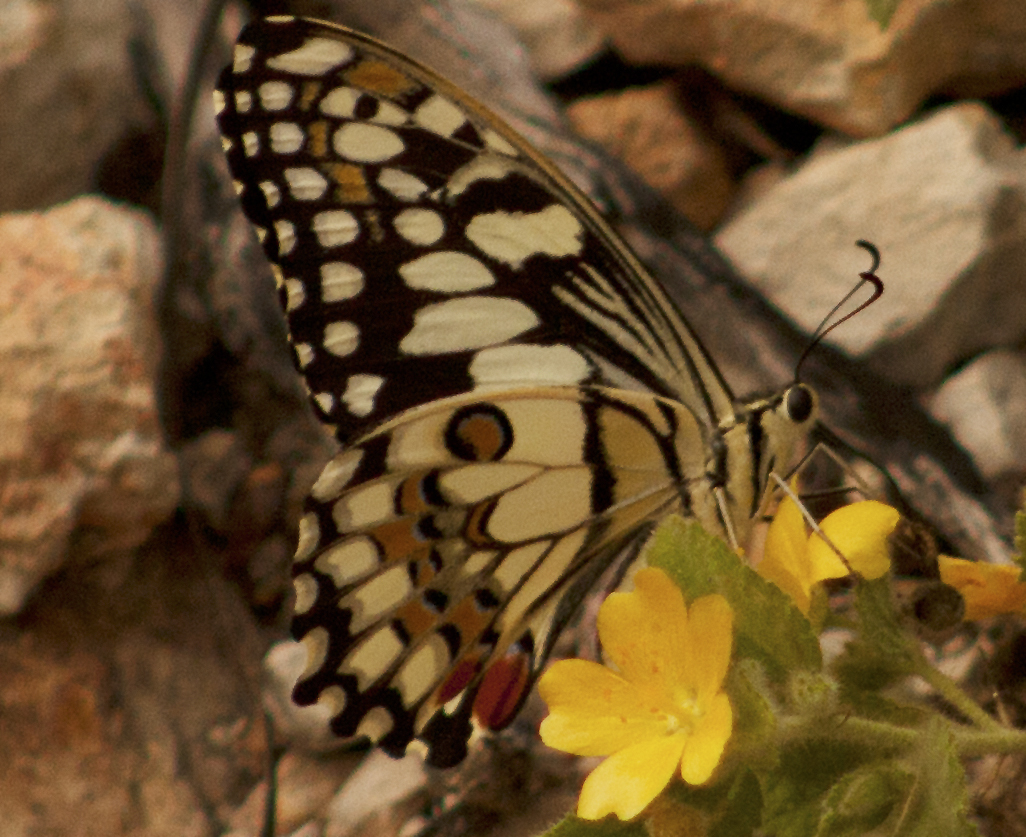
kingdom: Animalia
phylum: Arthropoda
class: Insecta
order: Lepidoptera
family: Papilionidae
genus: Papilio
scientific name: Papilio demoleus
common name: Lime butterfly
